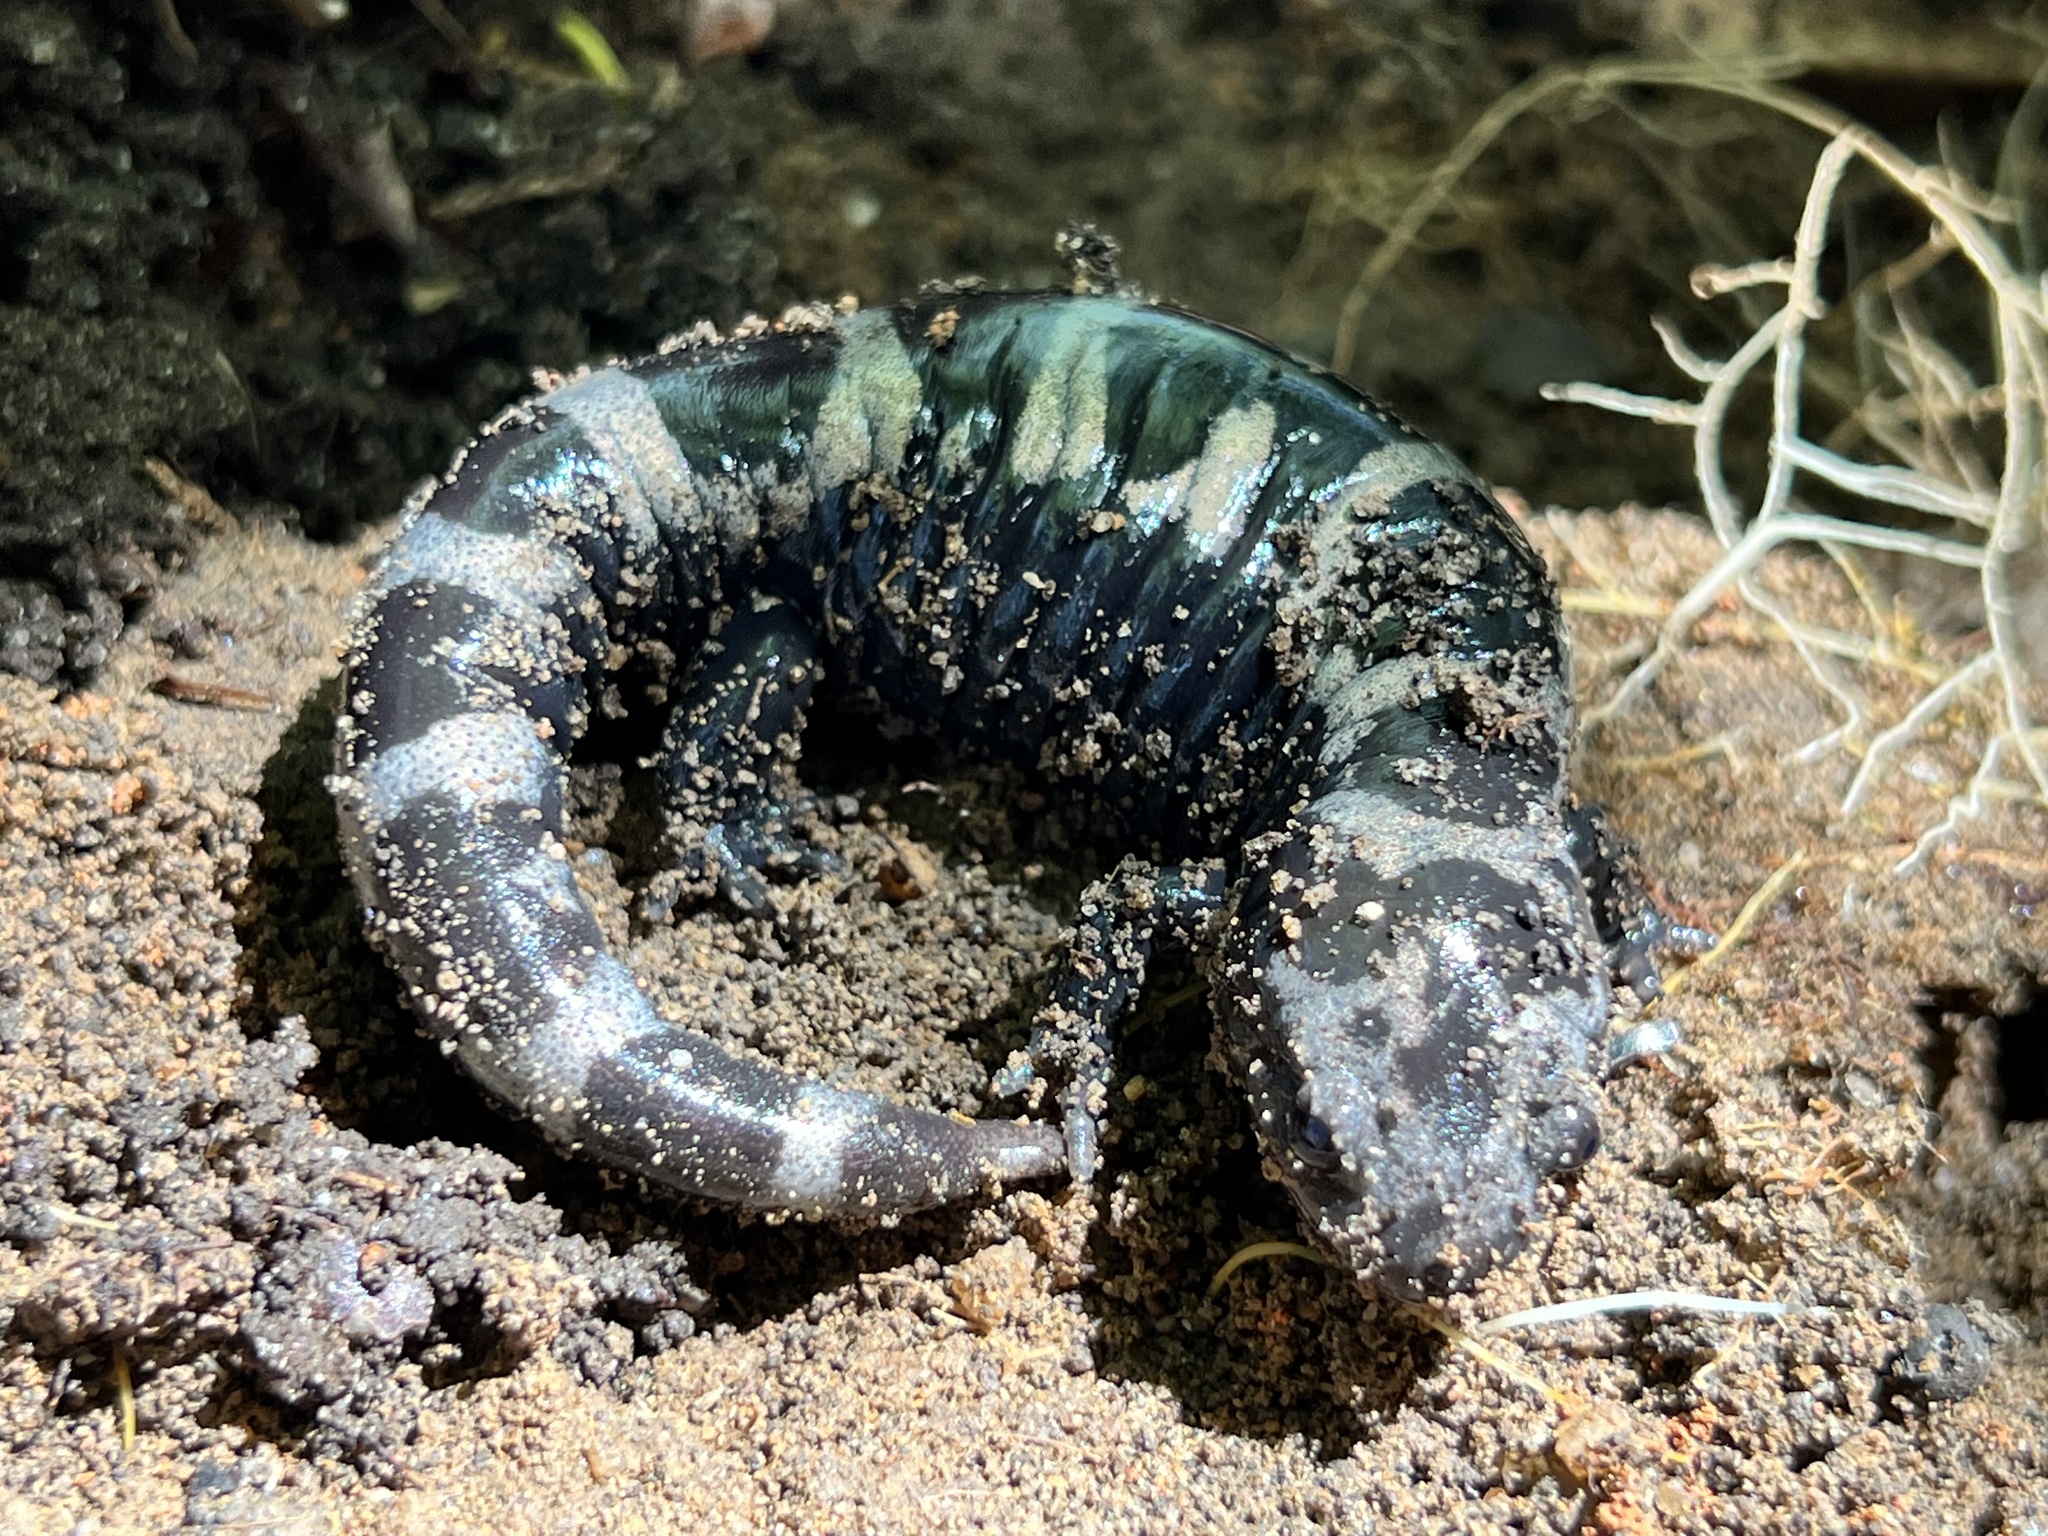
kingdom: Animalia
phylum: Chordata
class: Amphibia
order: Caudata
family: Ambystomatidae
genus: Ambystoma
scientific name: Ambystoma opacum
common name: Marbled salamander
